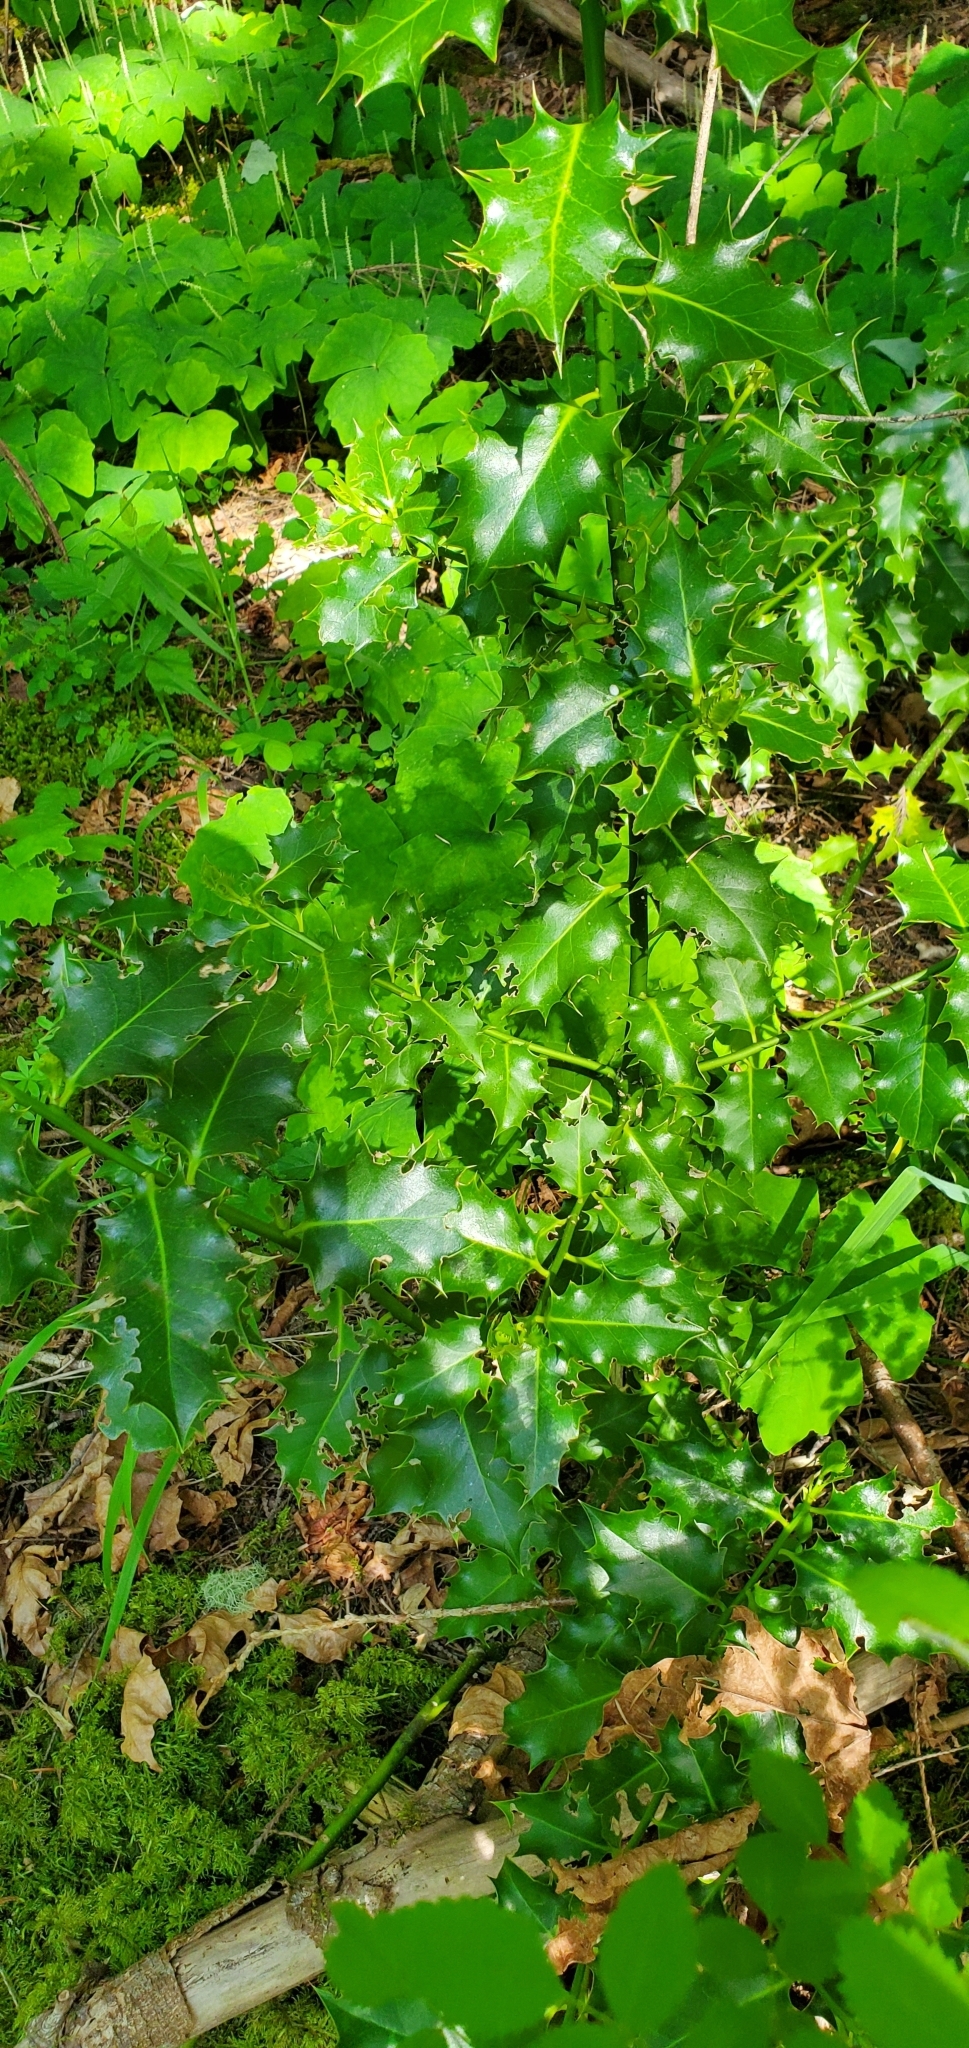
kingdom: Plantae
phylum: Tracheophyta
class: Magnoliopsida
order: Aquifoliales
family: Aquifoliaceae
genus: Ilex
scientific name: Ilex aquifolium
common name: English holly
